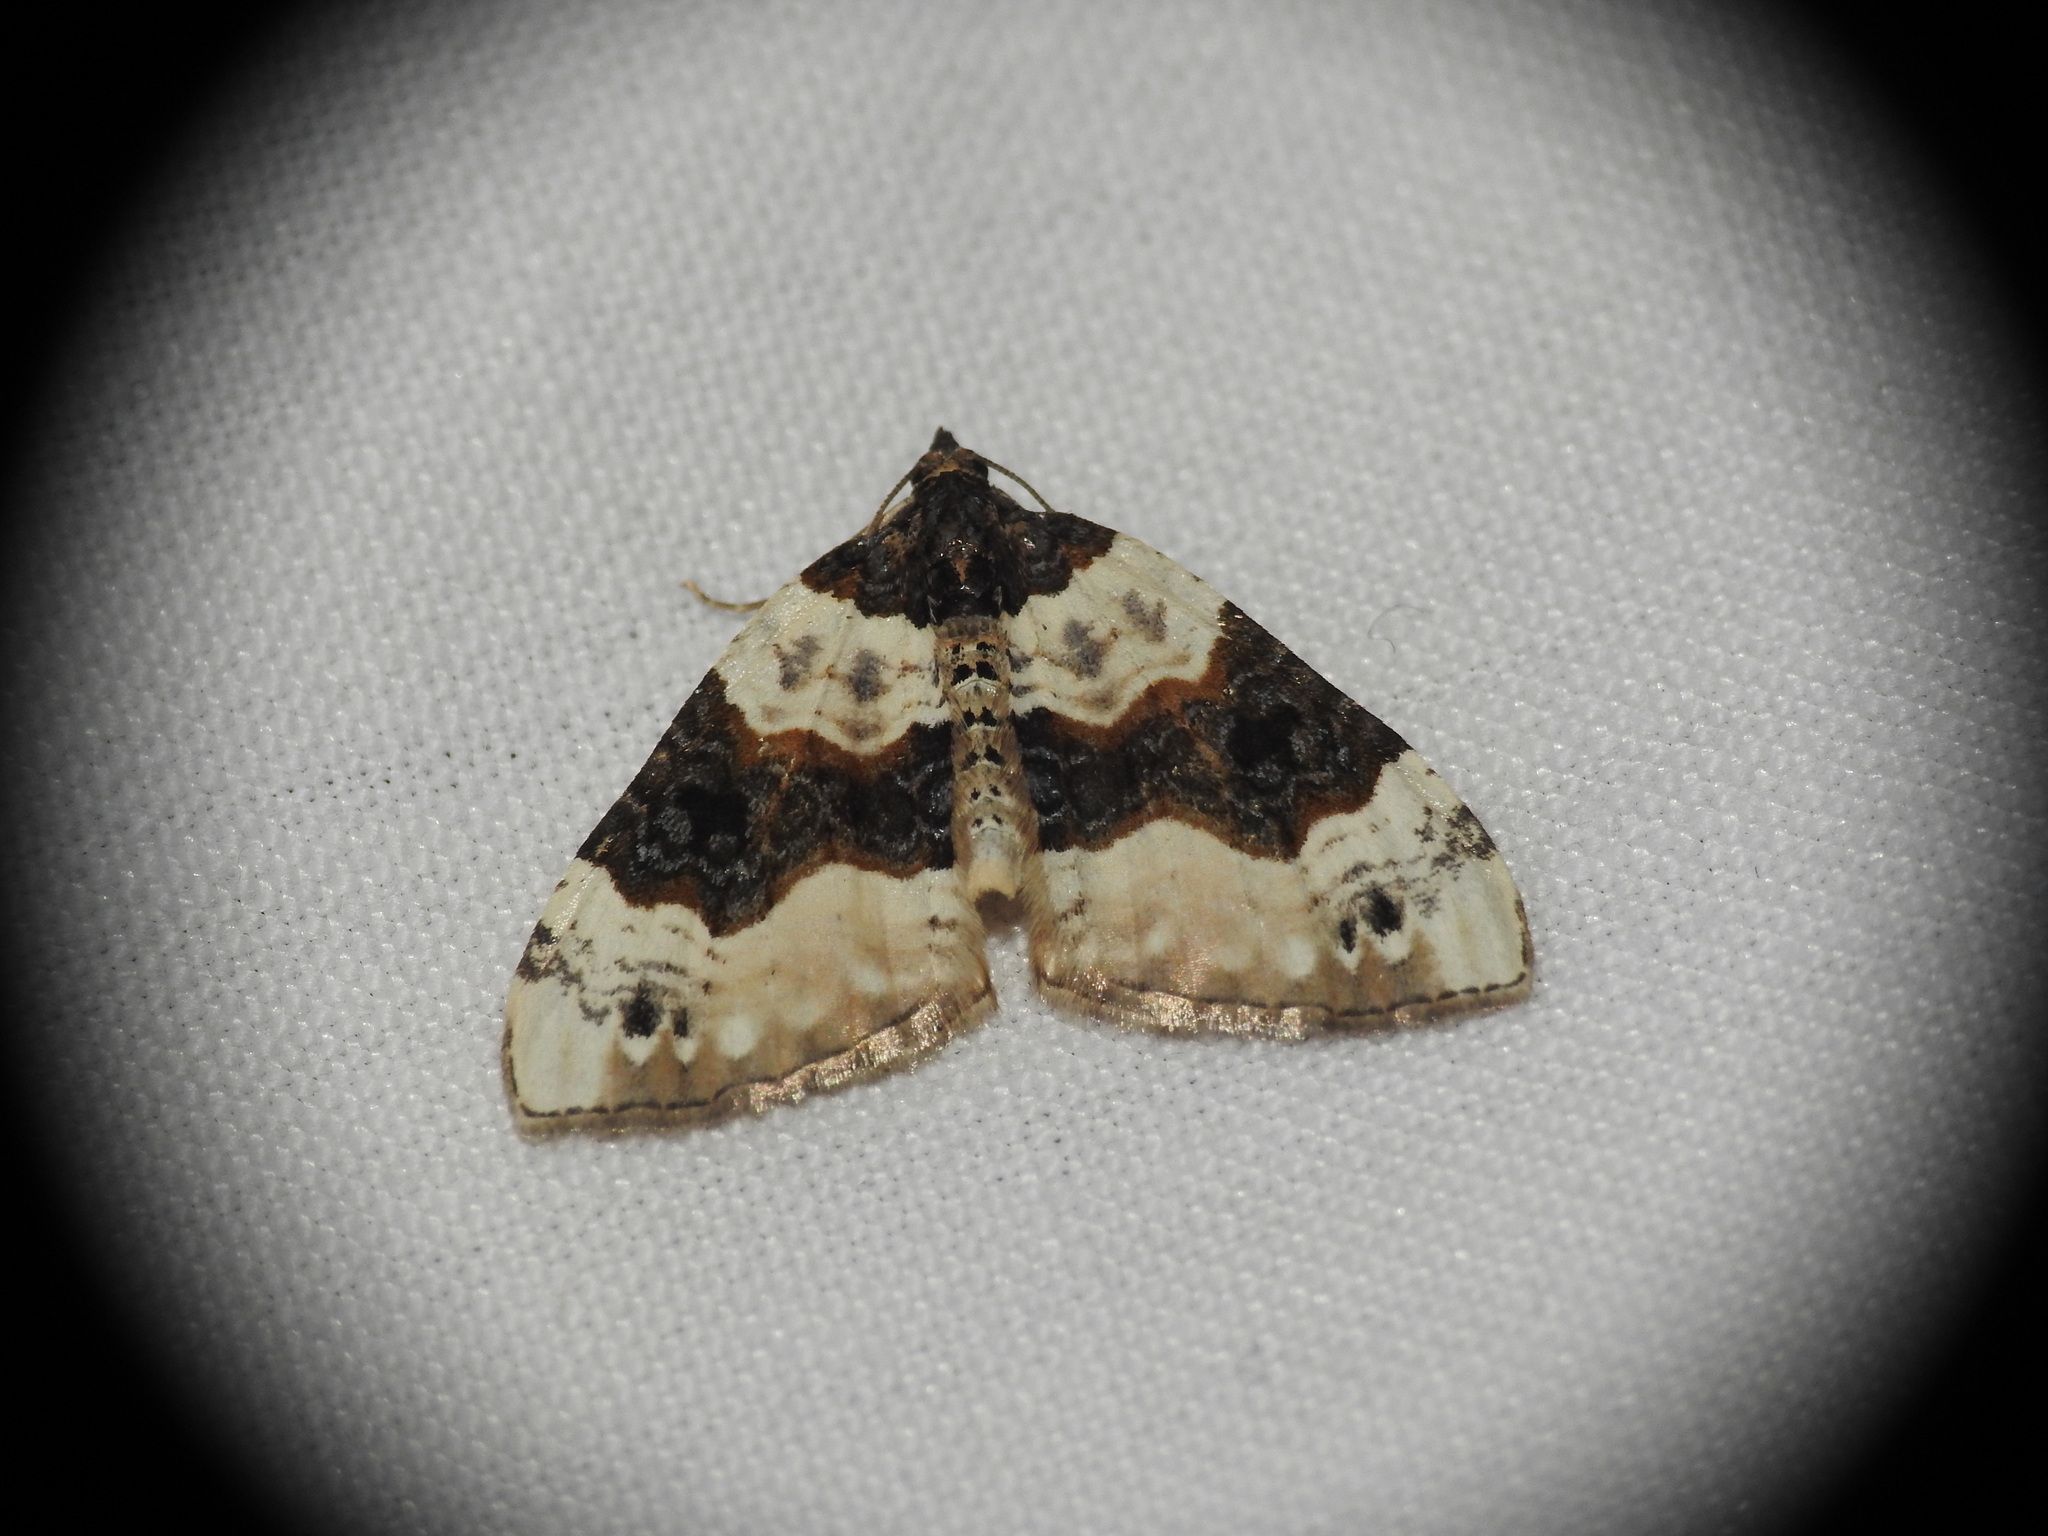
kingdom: Animalia
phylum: Arthropoda
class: Insecta
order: Lepidoptera
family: Geometridae
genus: Cosmorhoe
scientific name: Cosmorhoe ocellata
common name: Purple bar
